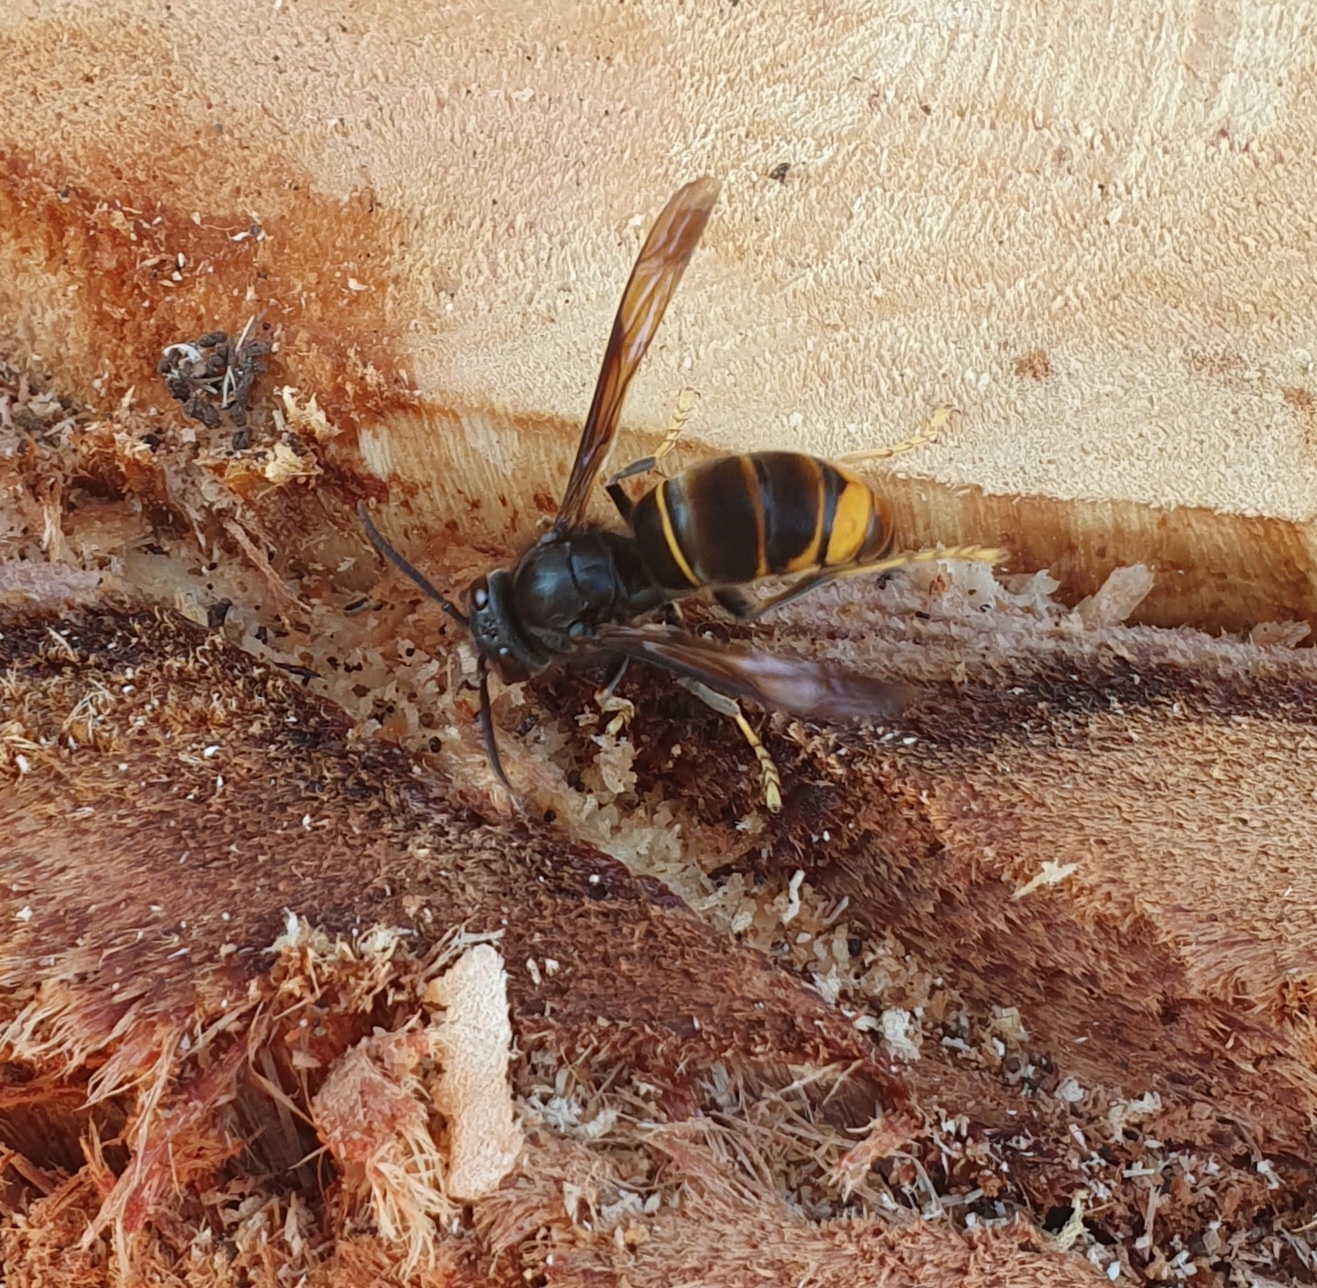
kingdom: Animalia
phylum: Arthropoda
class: Insecta
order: Hymenoptera
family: Vespidae
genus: Vespa
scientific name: Vespa velutina
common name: Asian hornet
